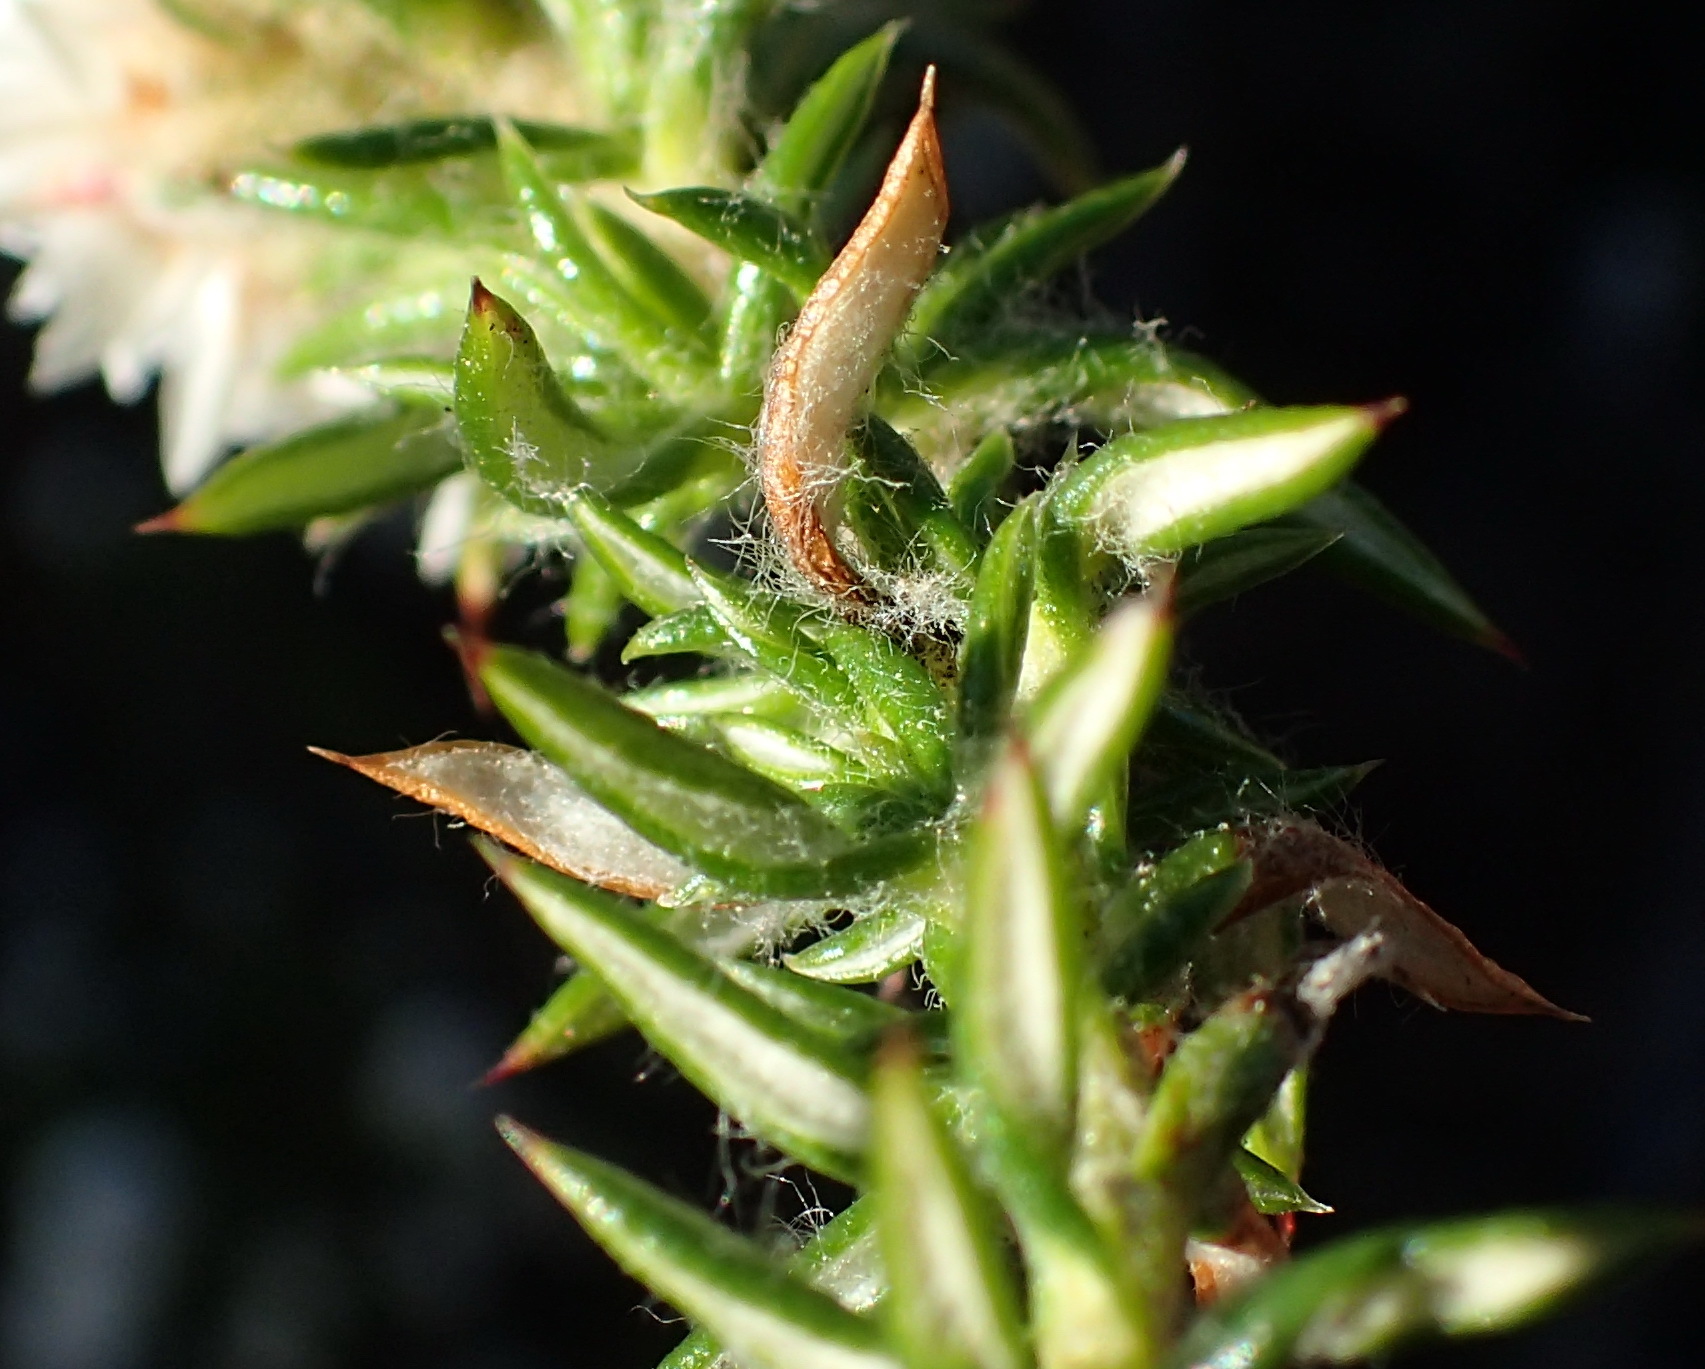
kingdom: Plantae
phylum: Tracheophyta
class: Magnoliopsida
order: Asterales
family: Asteraceae
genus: Metalasia
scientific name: Metalasia inversa
